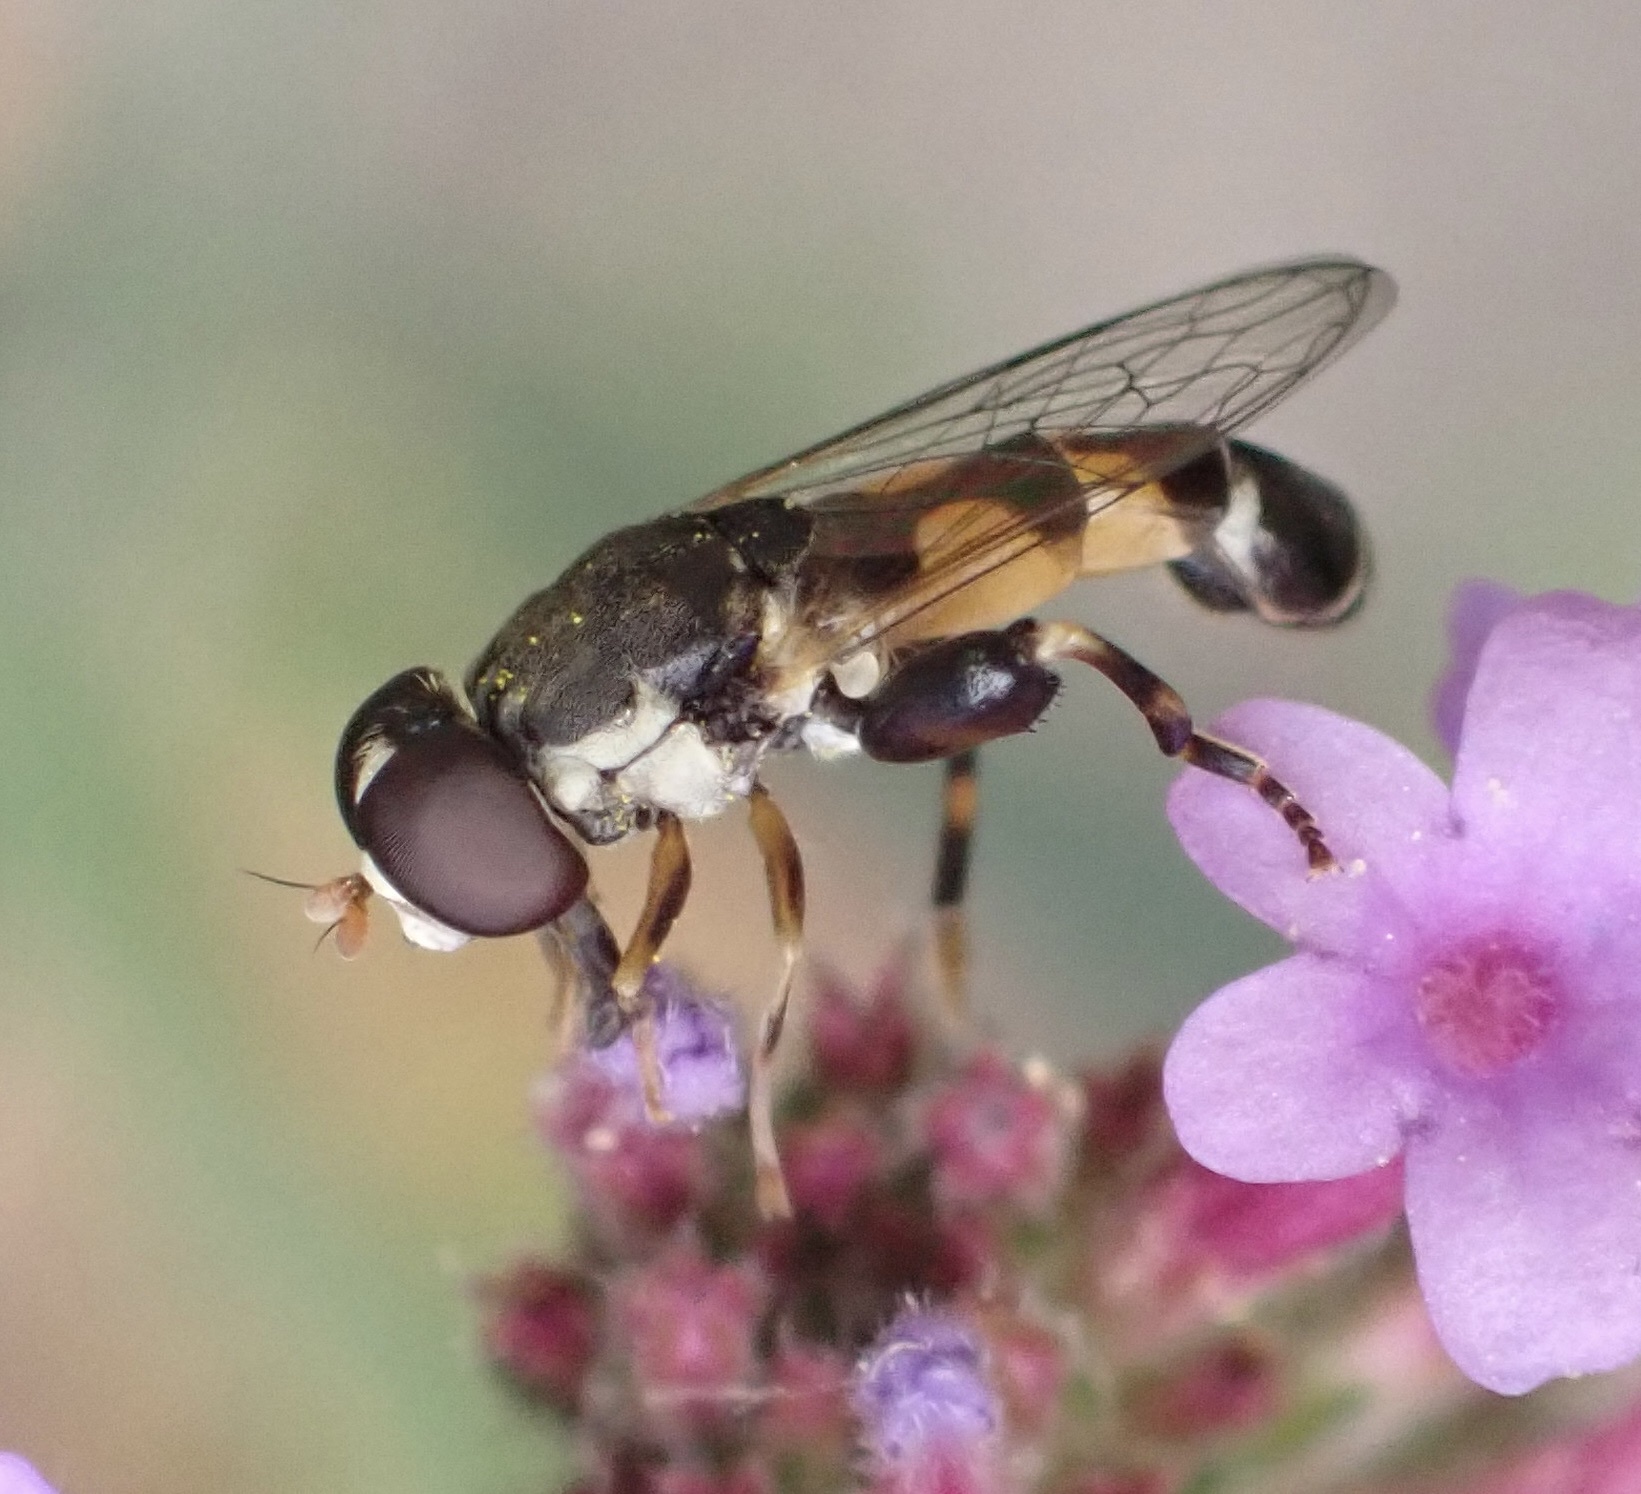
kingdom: Animalia
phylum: Arthropoda
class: Insecta
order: Diptera
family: Syrphidae
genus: Syritta
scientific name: Syritta pipiens
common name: Hover fly
